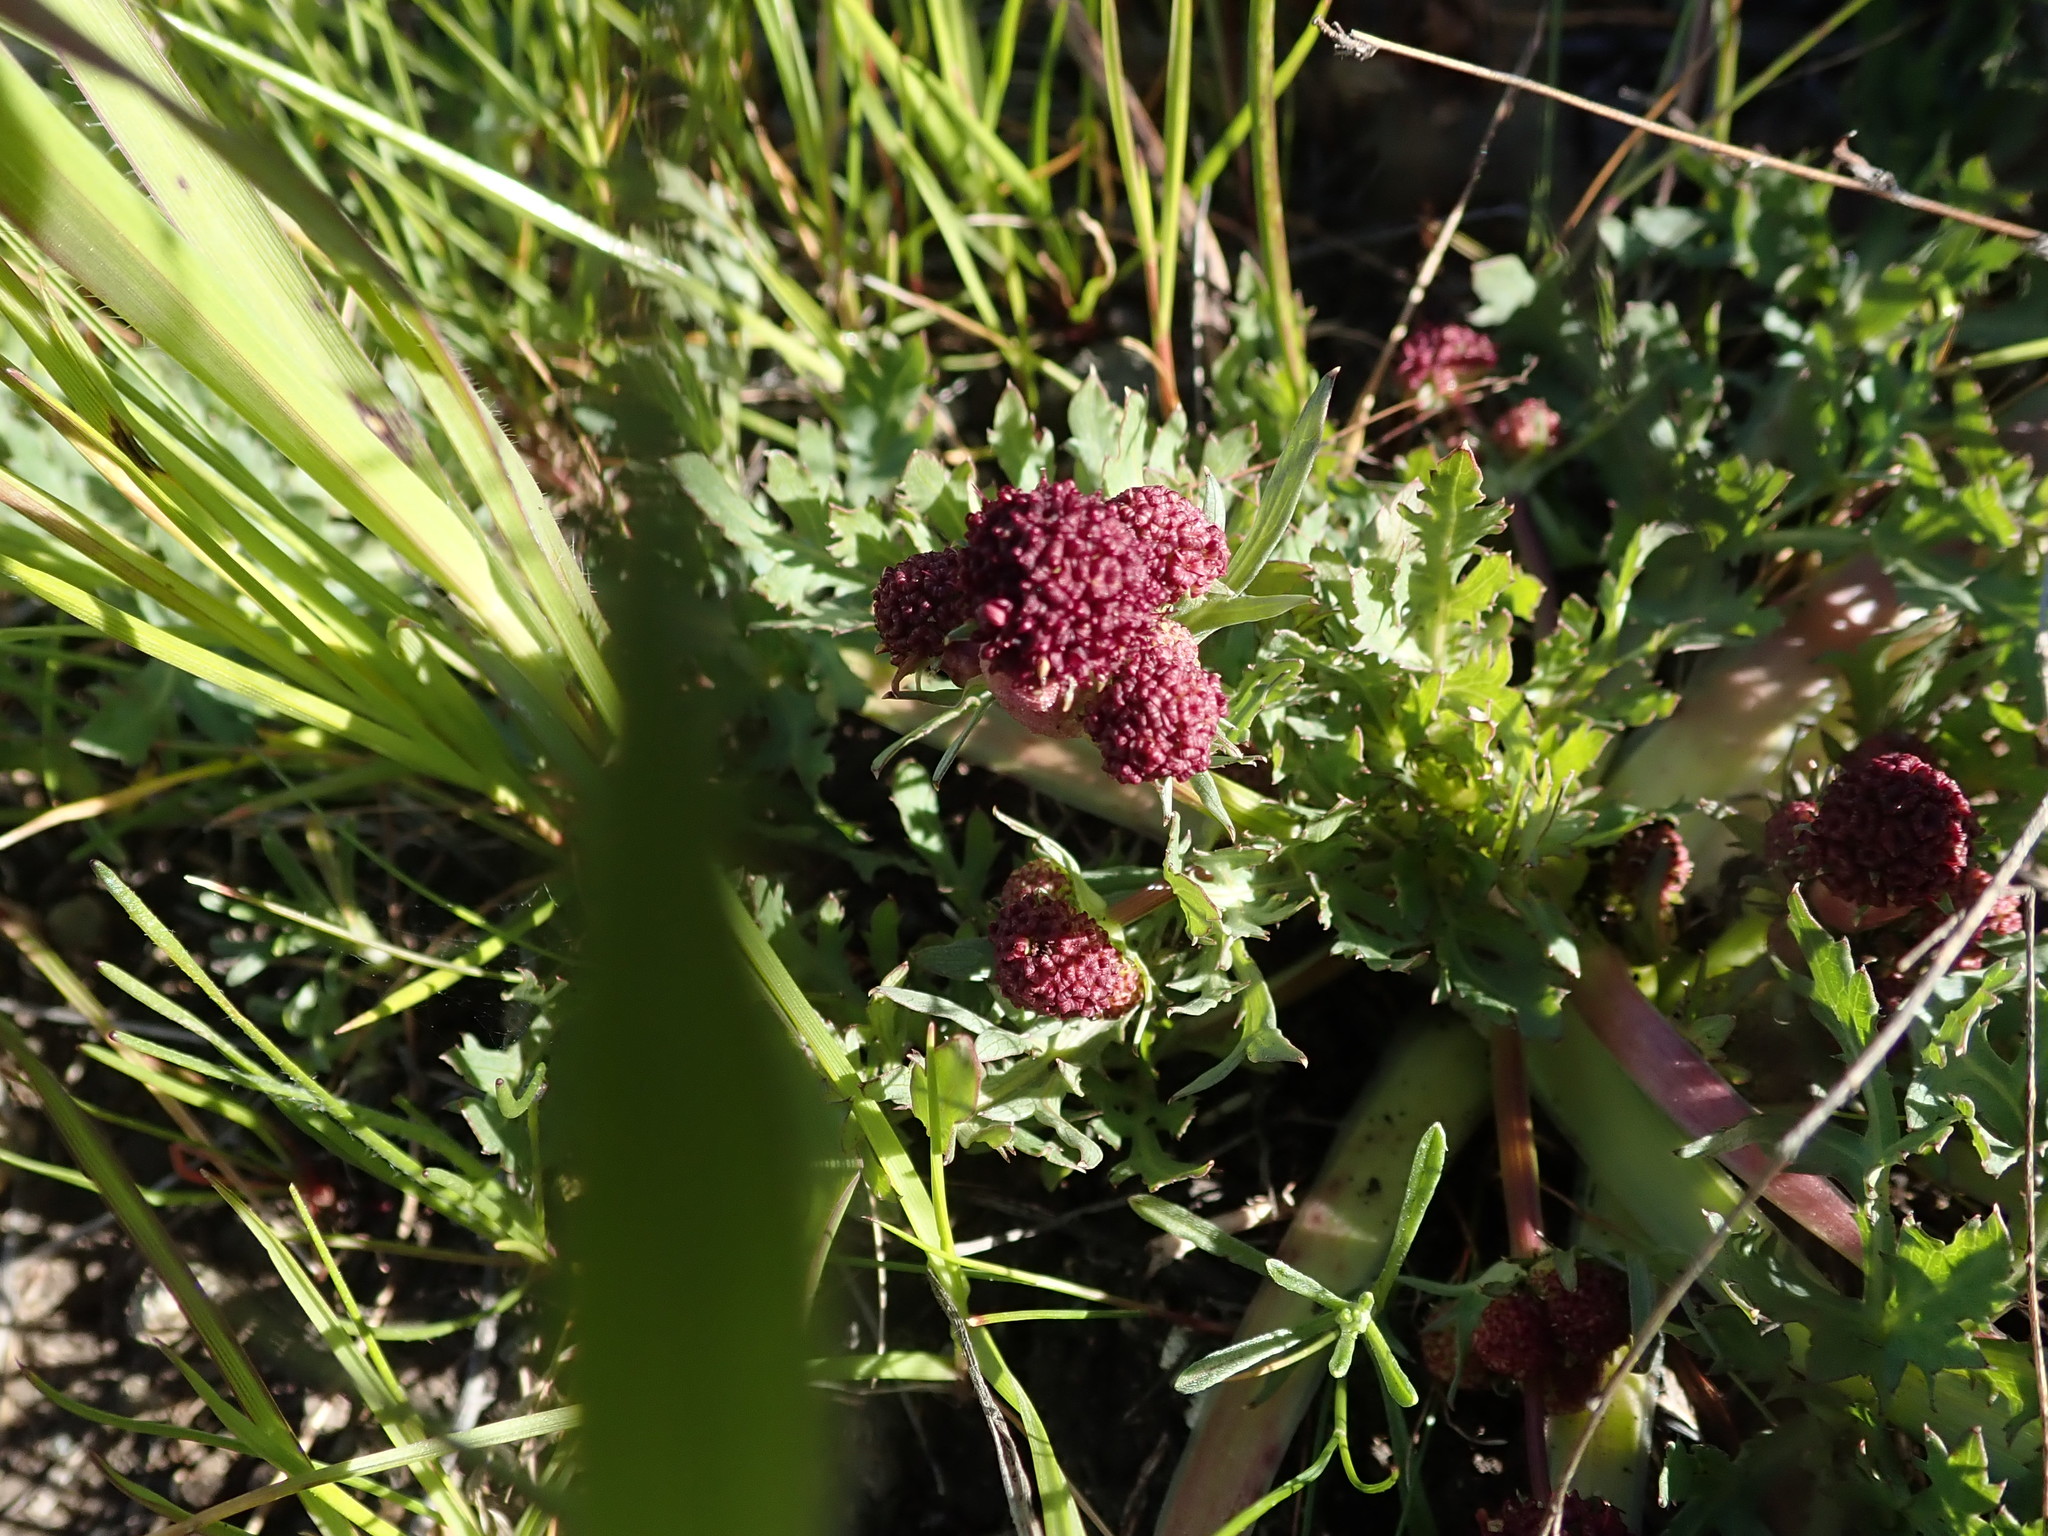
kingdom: Plantae
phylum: Tracheophyta
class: Magnoliopsida
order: Apiales
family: Apiaceae
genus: Sanicula
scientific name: Sanicula bipinnatifida
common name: Shoe-buttons
